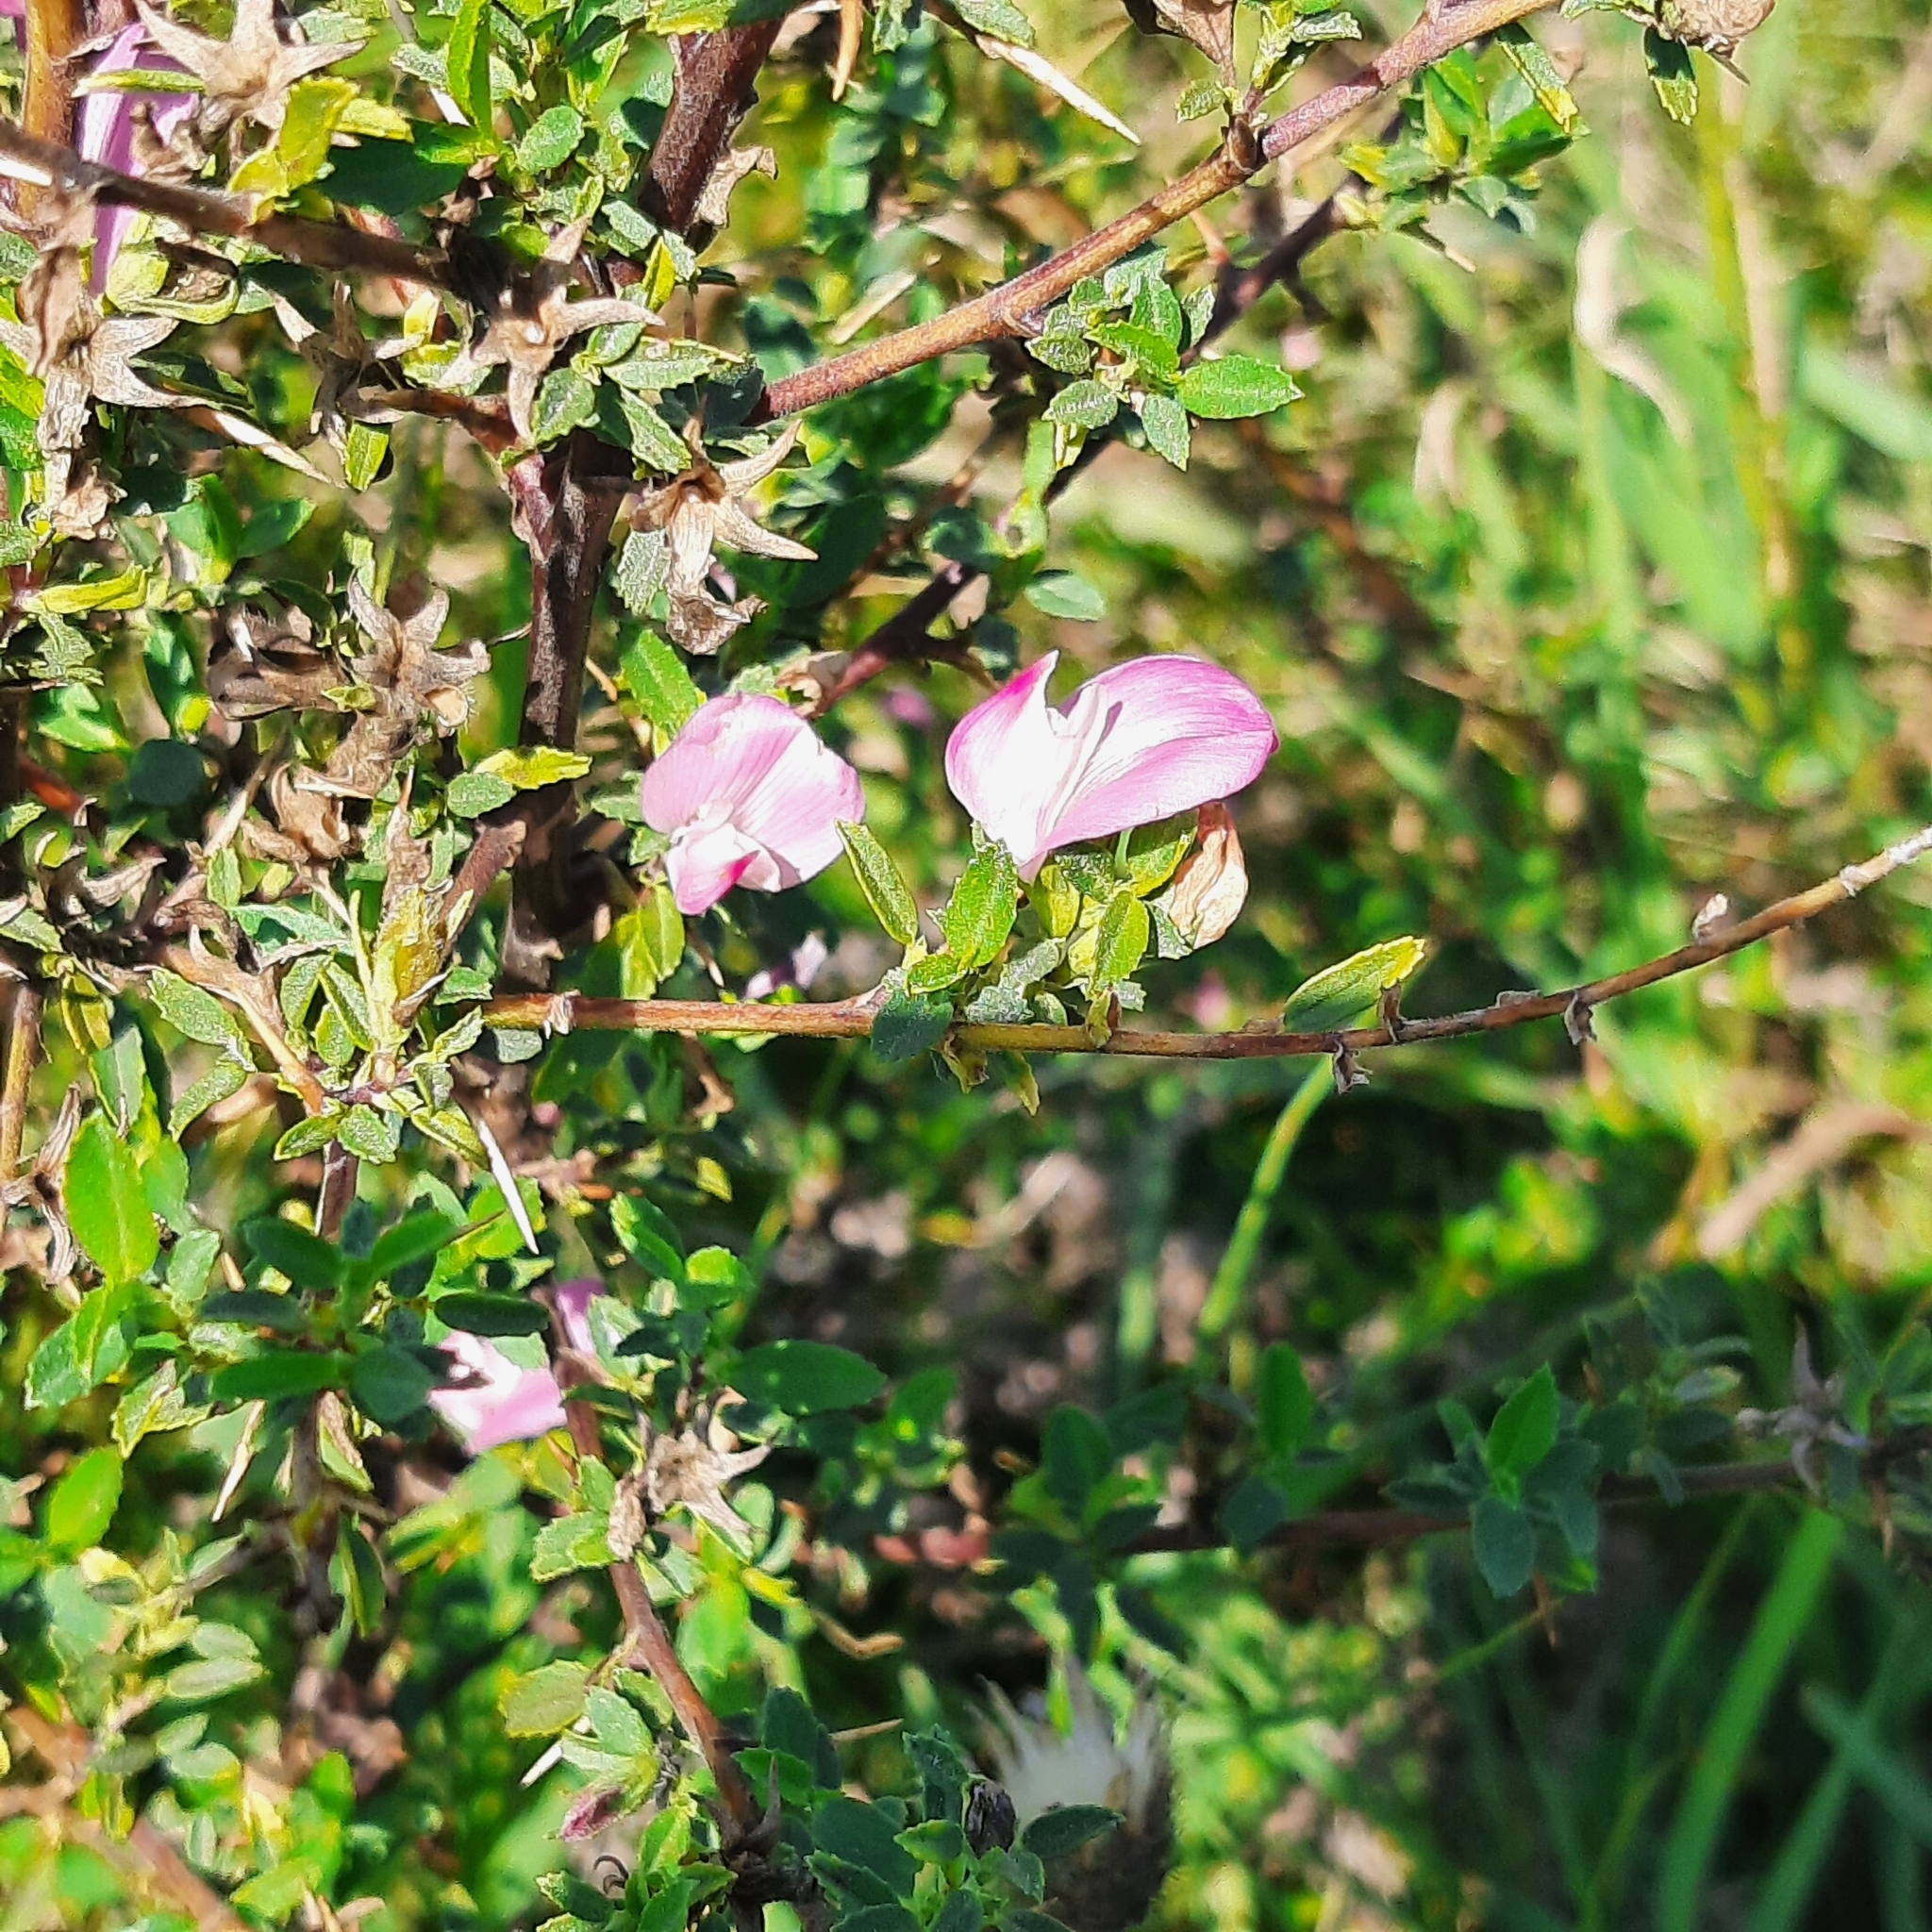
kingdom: Plantae
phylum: Tracheophyta
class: Magnoliopsida
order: Fabales
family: Fabaceae
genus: Ononis
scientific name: Ononis spinosa
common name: Spiny restharrow
